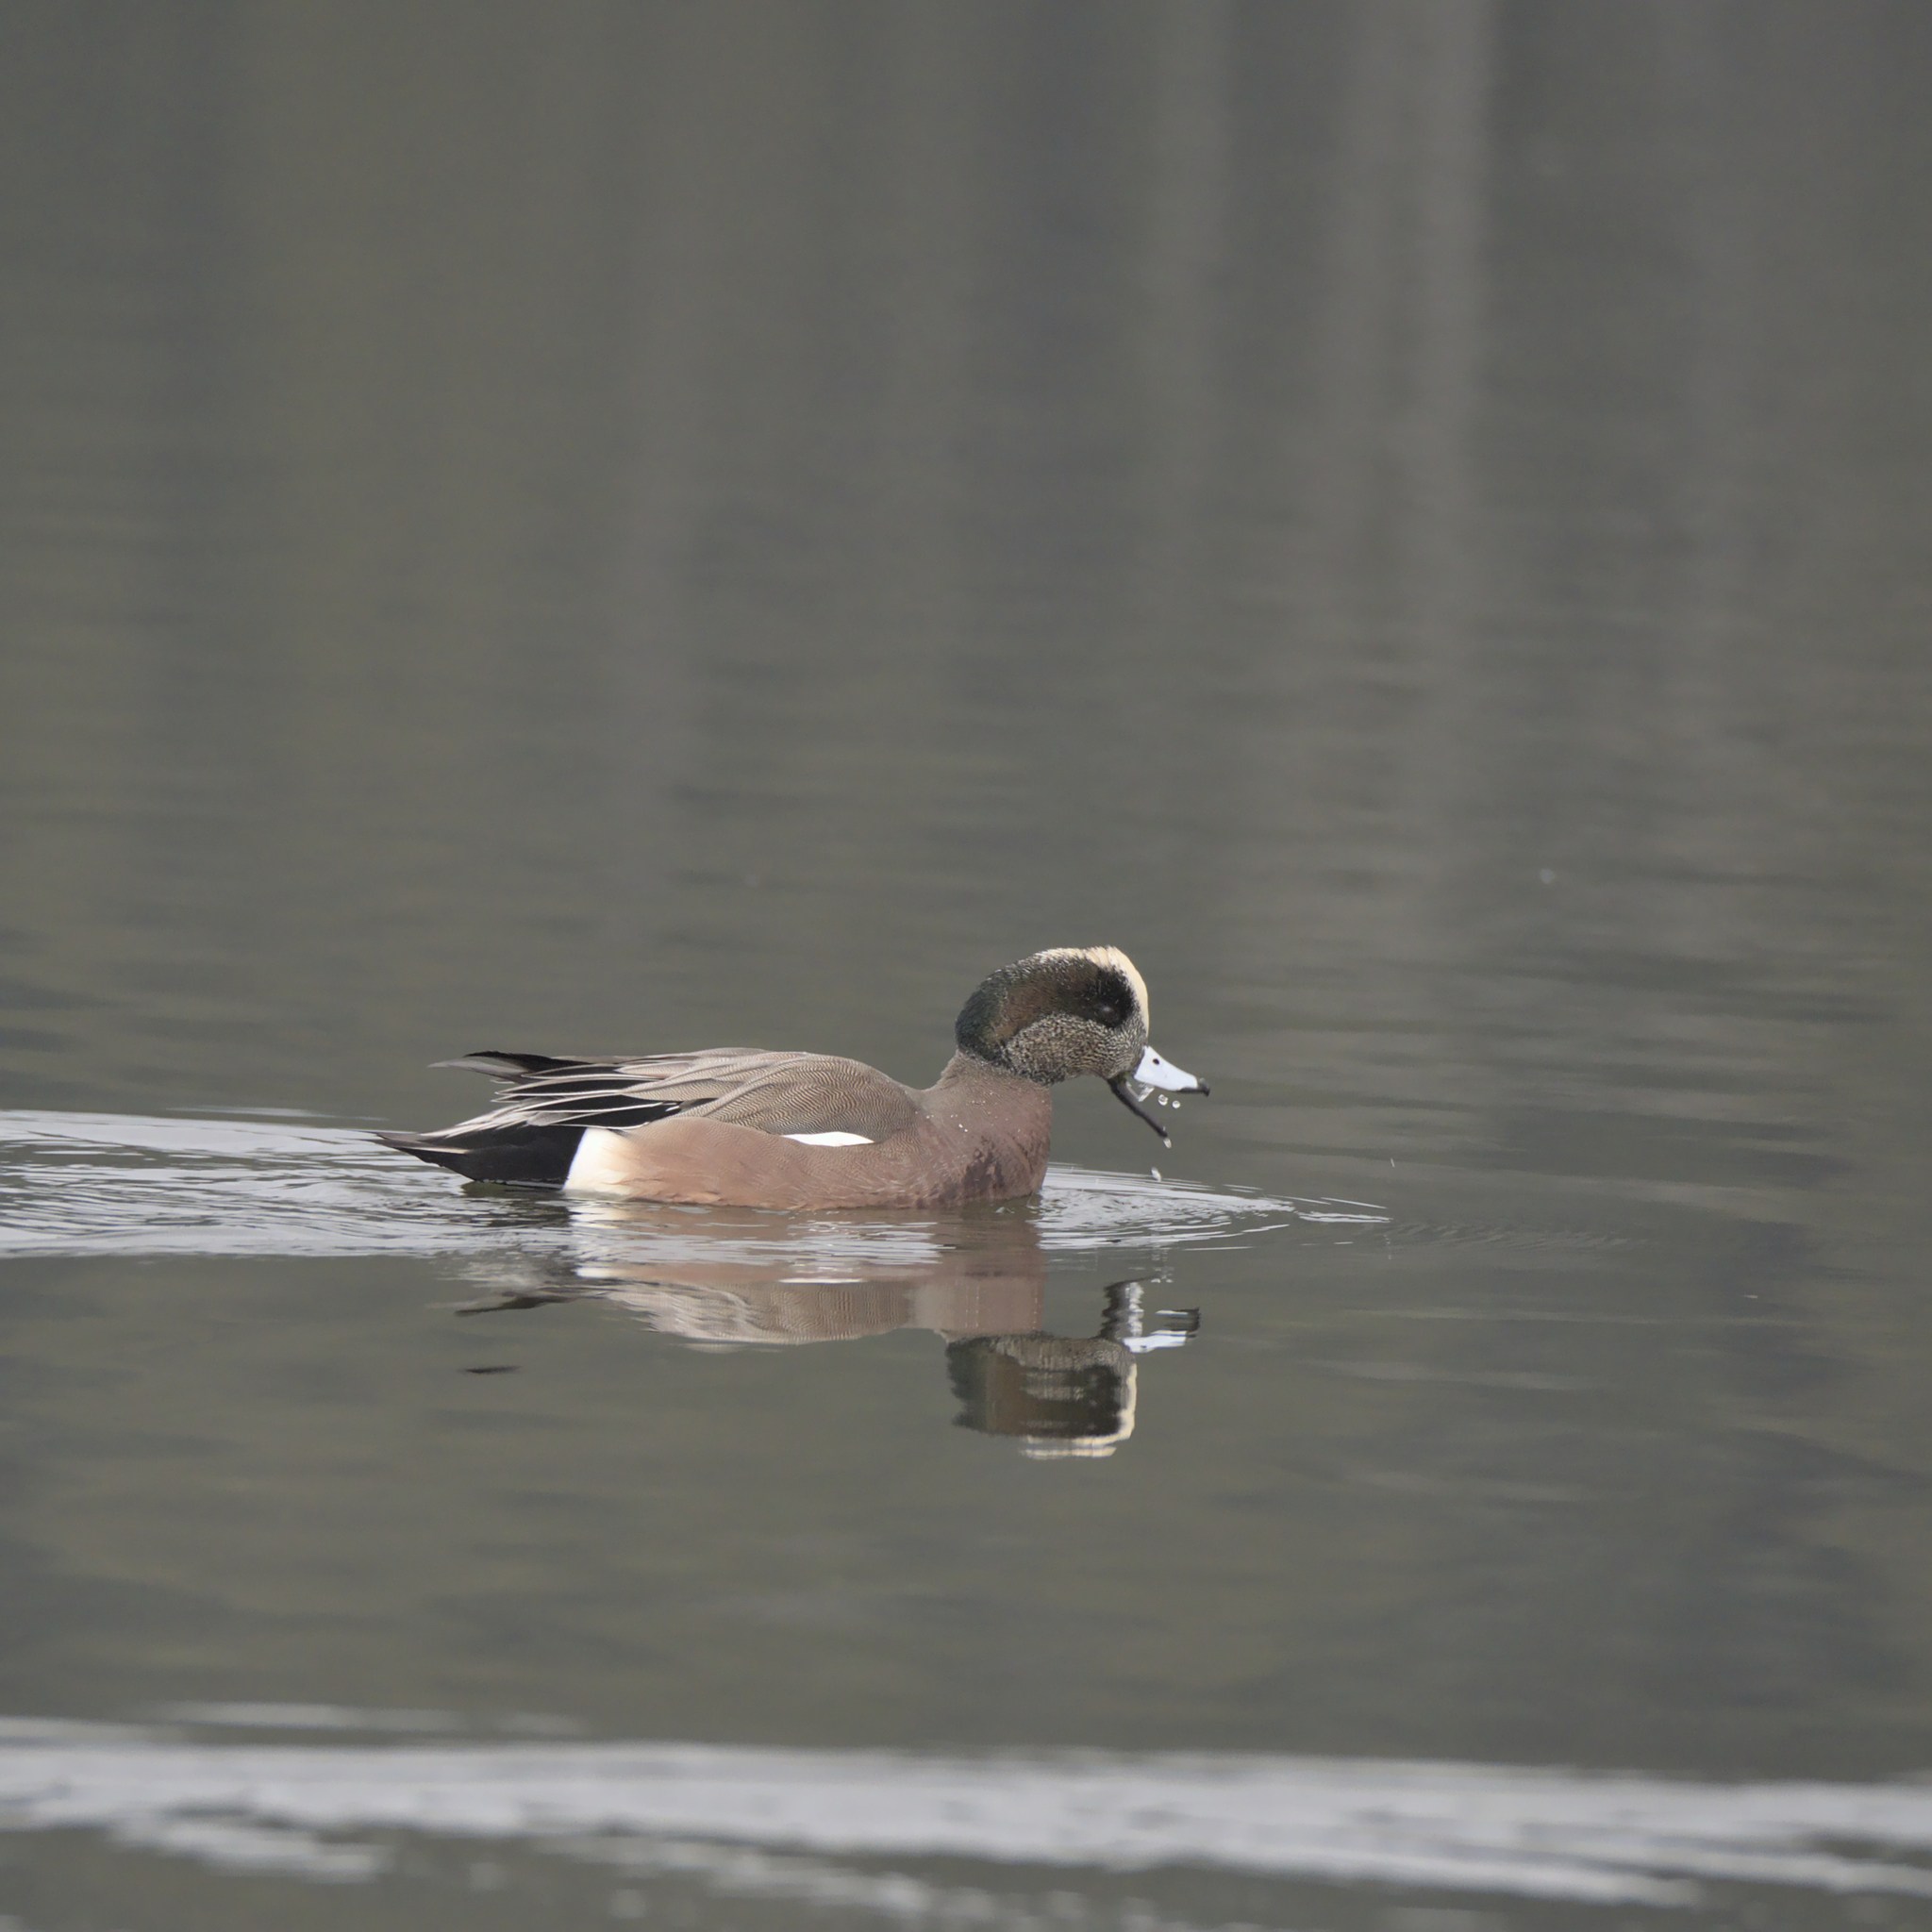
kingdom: Animalia
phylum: Chordata
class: Aves
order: Anseriformes
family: Anatidae
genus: Mareca
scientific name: Mareca americana
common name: American wigeon
